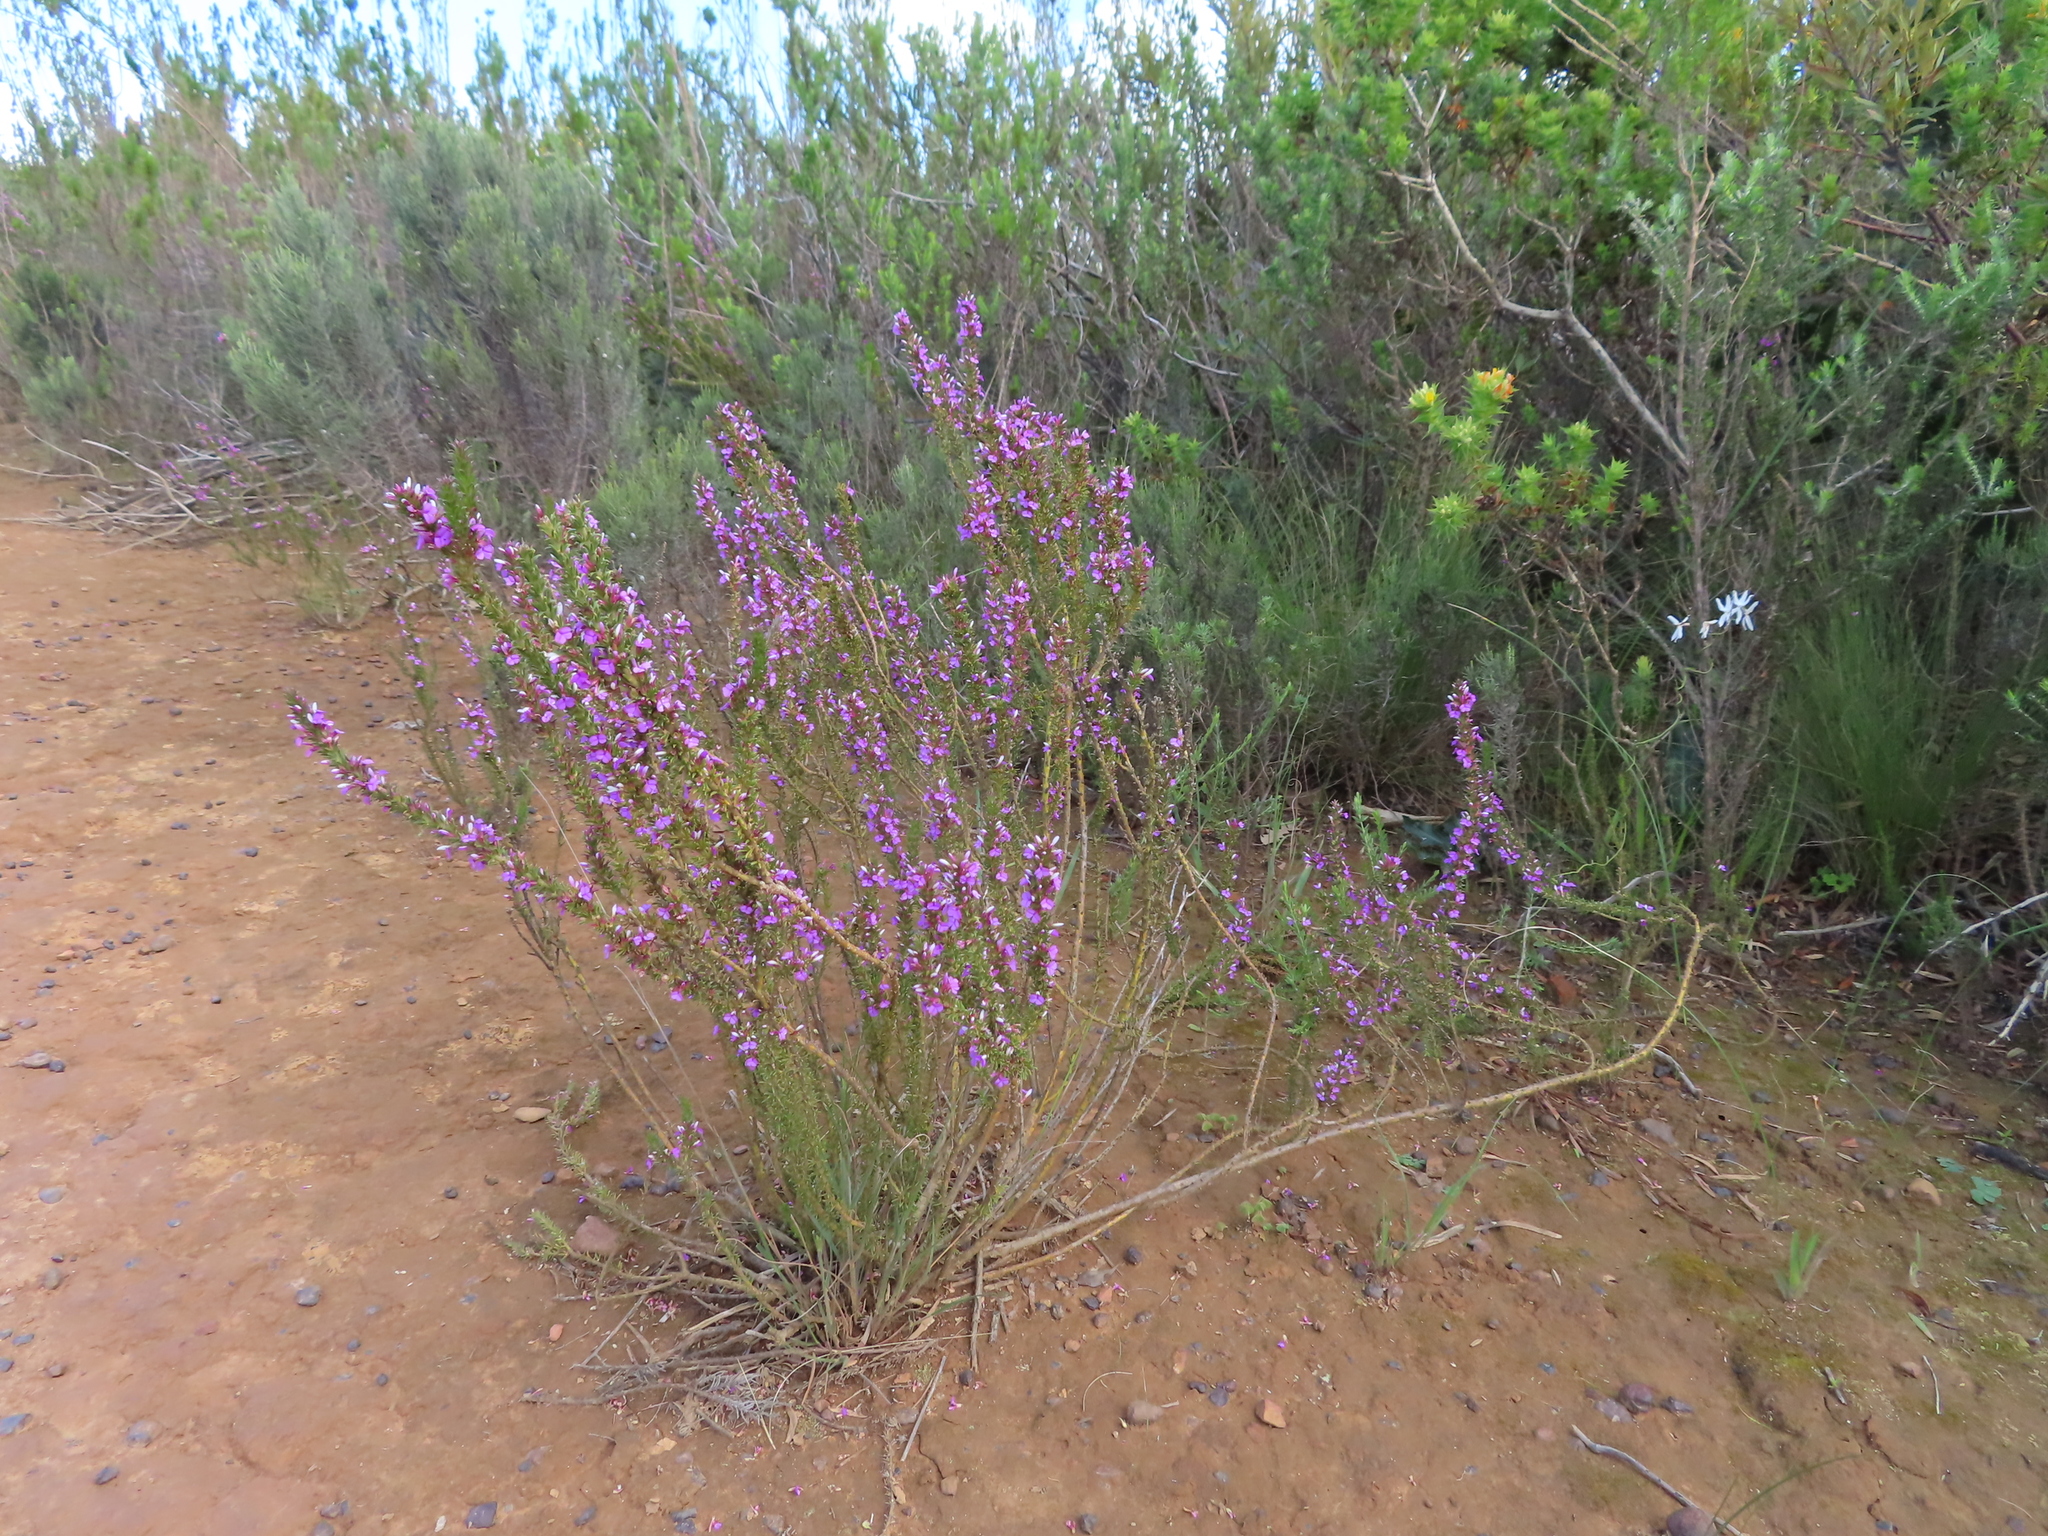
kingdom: Plantae
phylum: Tracheophyta
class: Magnoliopsida
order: Fabales
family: Polygalaceae
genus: Muraltia
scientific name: Muraltia heisteria
